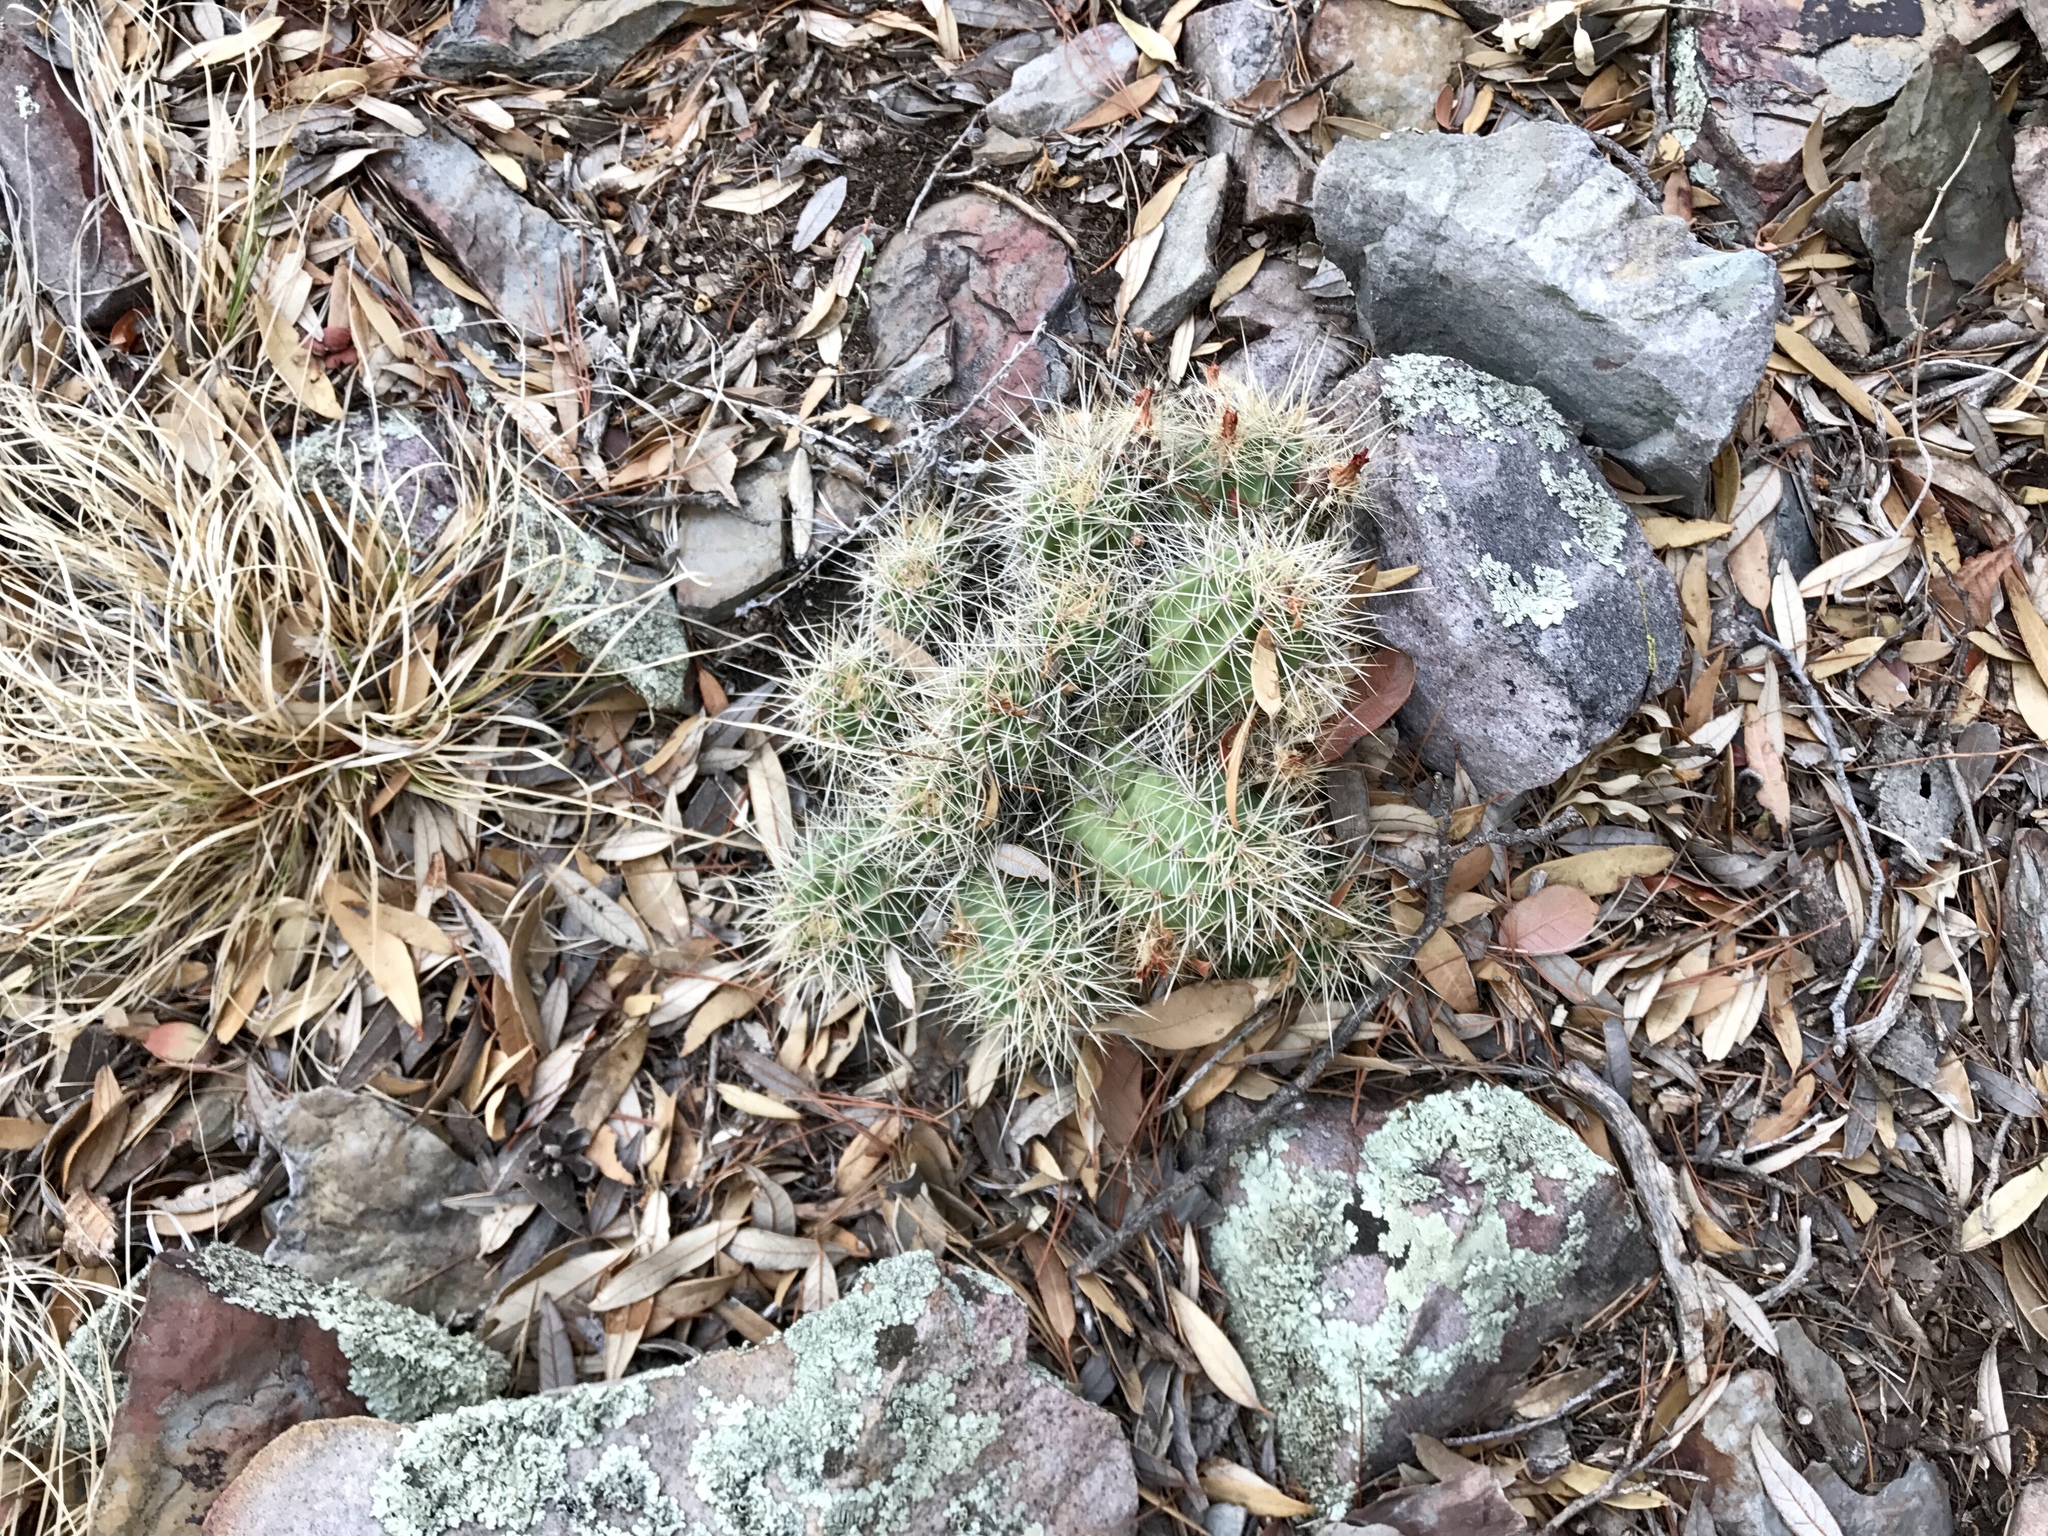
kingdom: Plantae
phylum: Tracheophyta
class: Magnoliopsida
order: Caryophyllales
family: Cactaceae
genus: Echinocereus
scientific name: Echinocereus coccineus
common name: Scarlet hedgehog cactus
